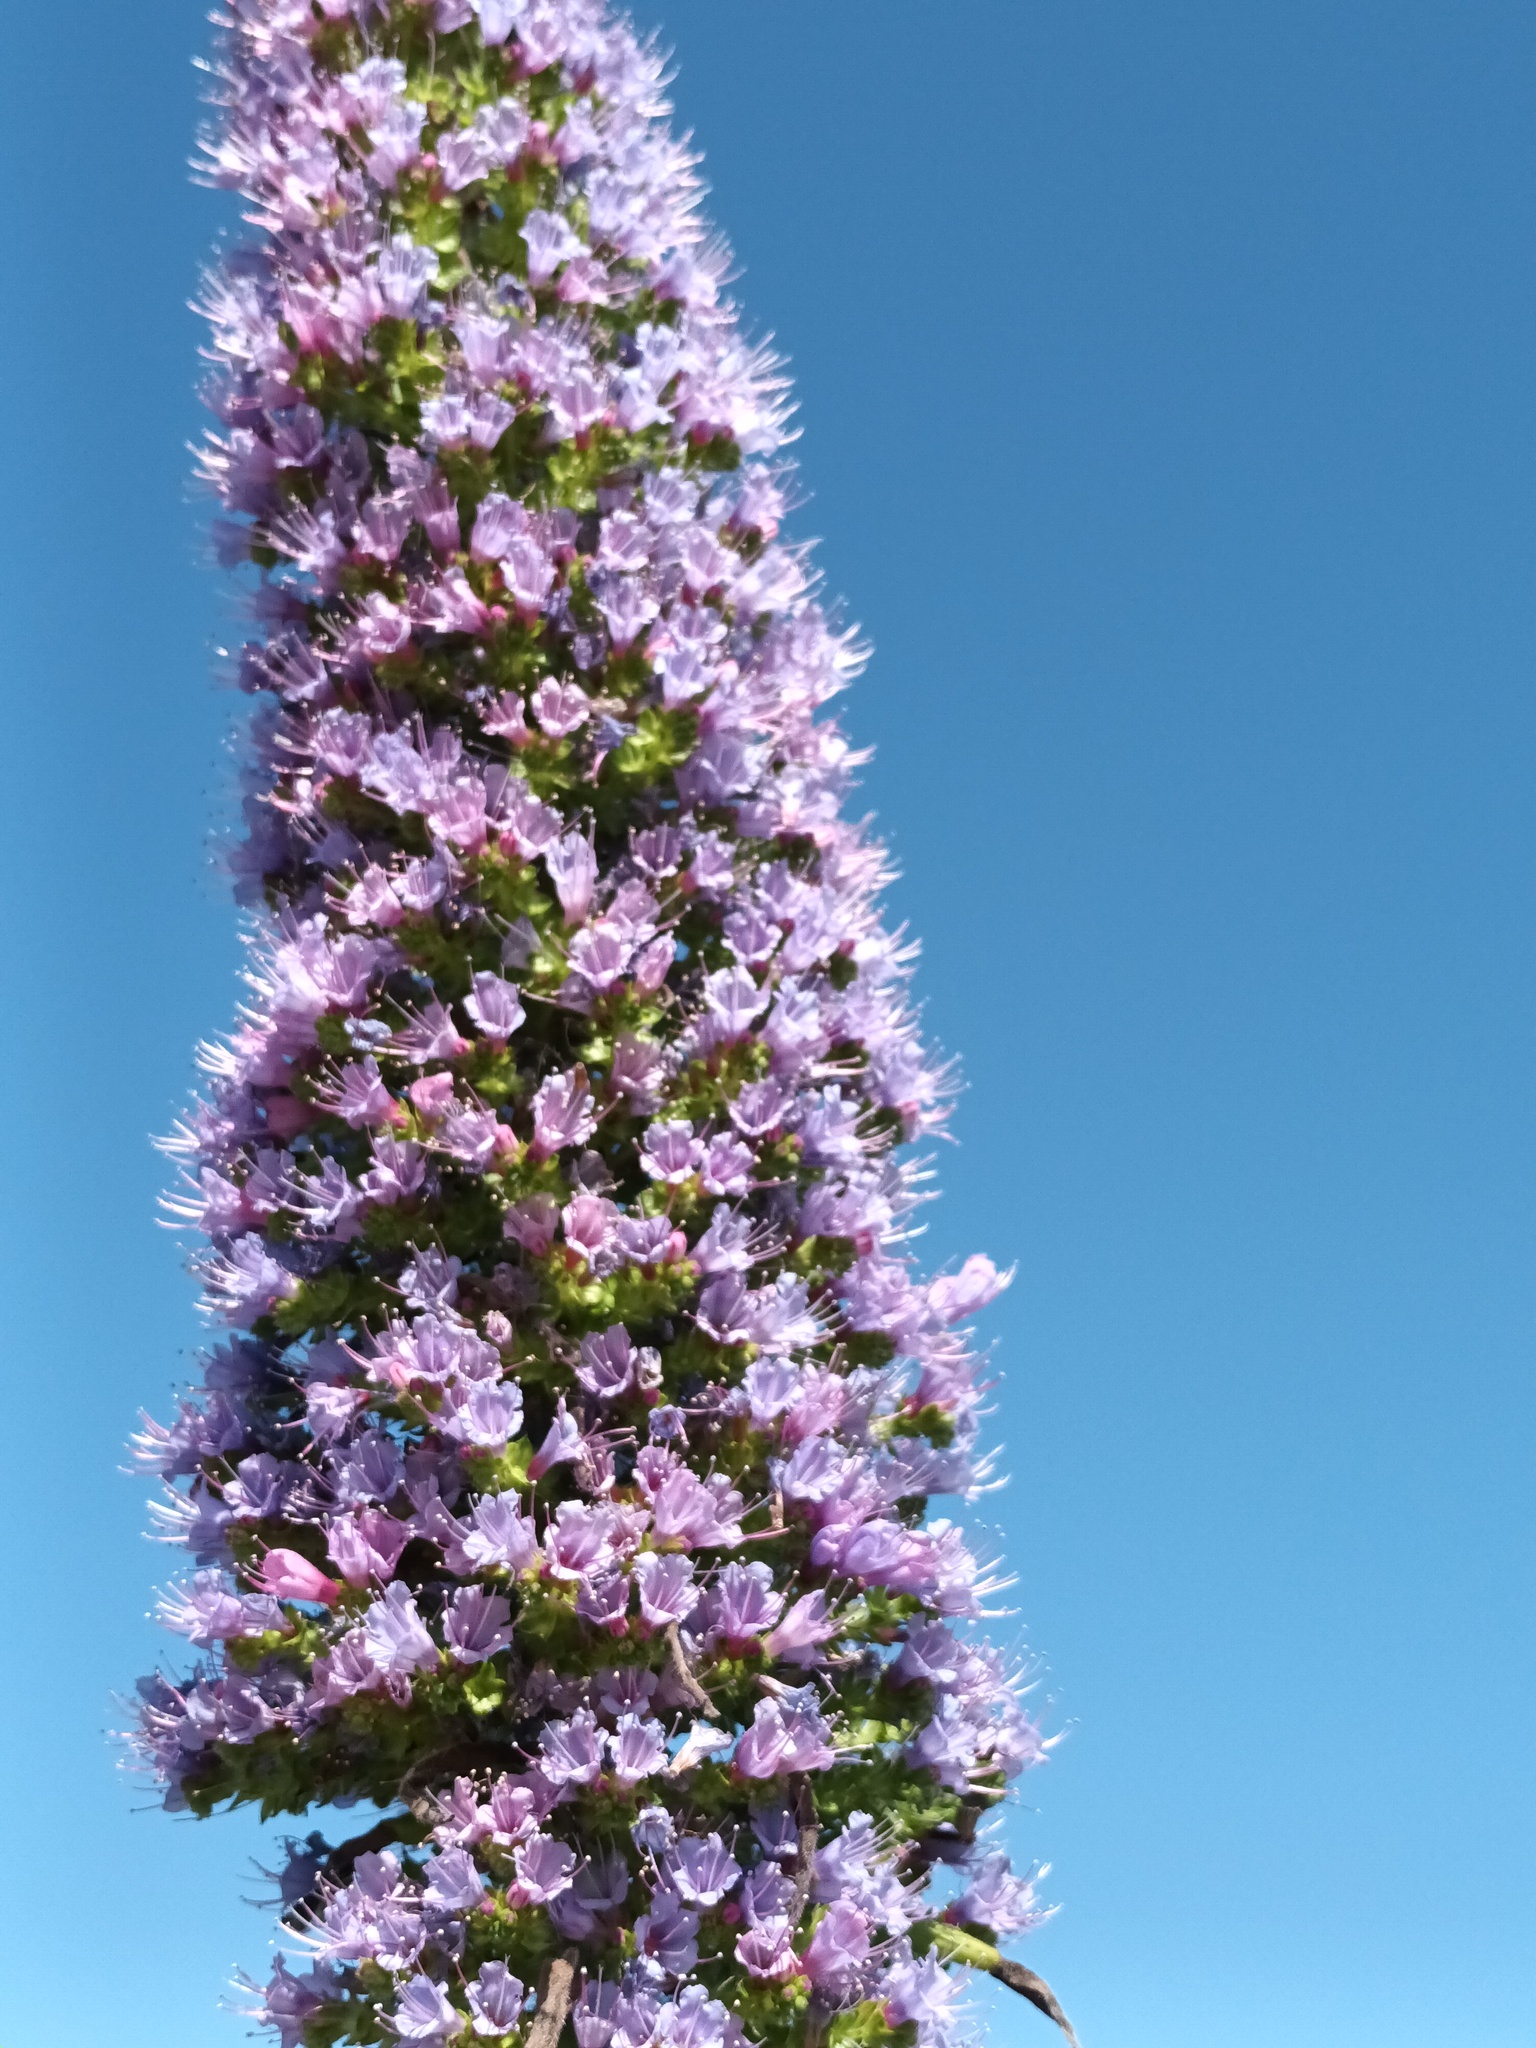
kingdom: Plantae
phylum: Tracheophyta
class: Magnoliopsida
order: Boraginales
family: Boraginaceae
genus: Echium
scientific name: Echium pininana
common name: Giant viper's-bugloss
